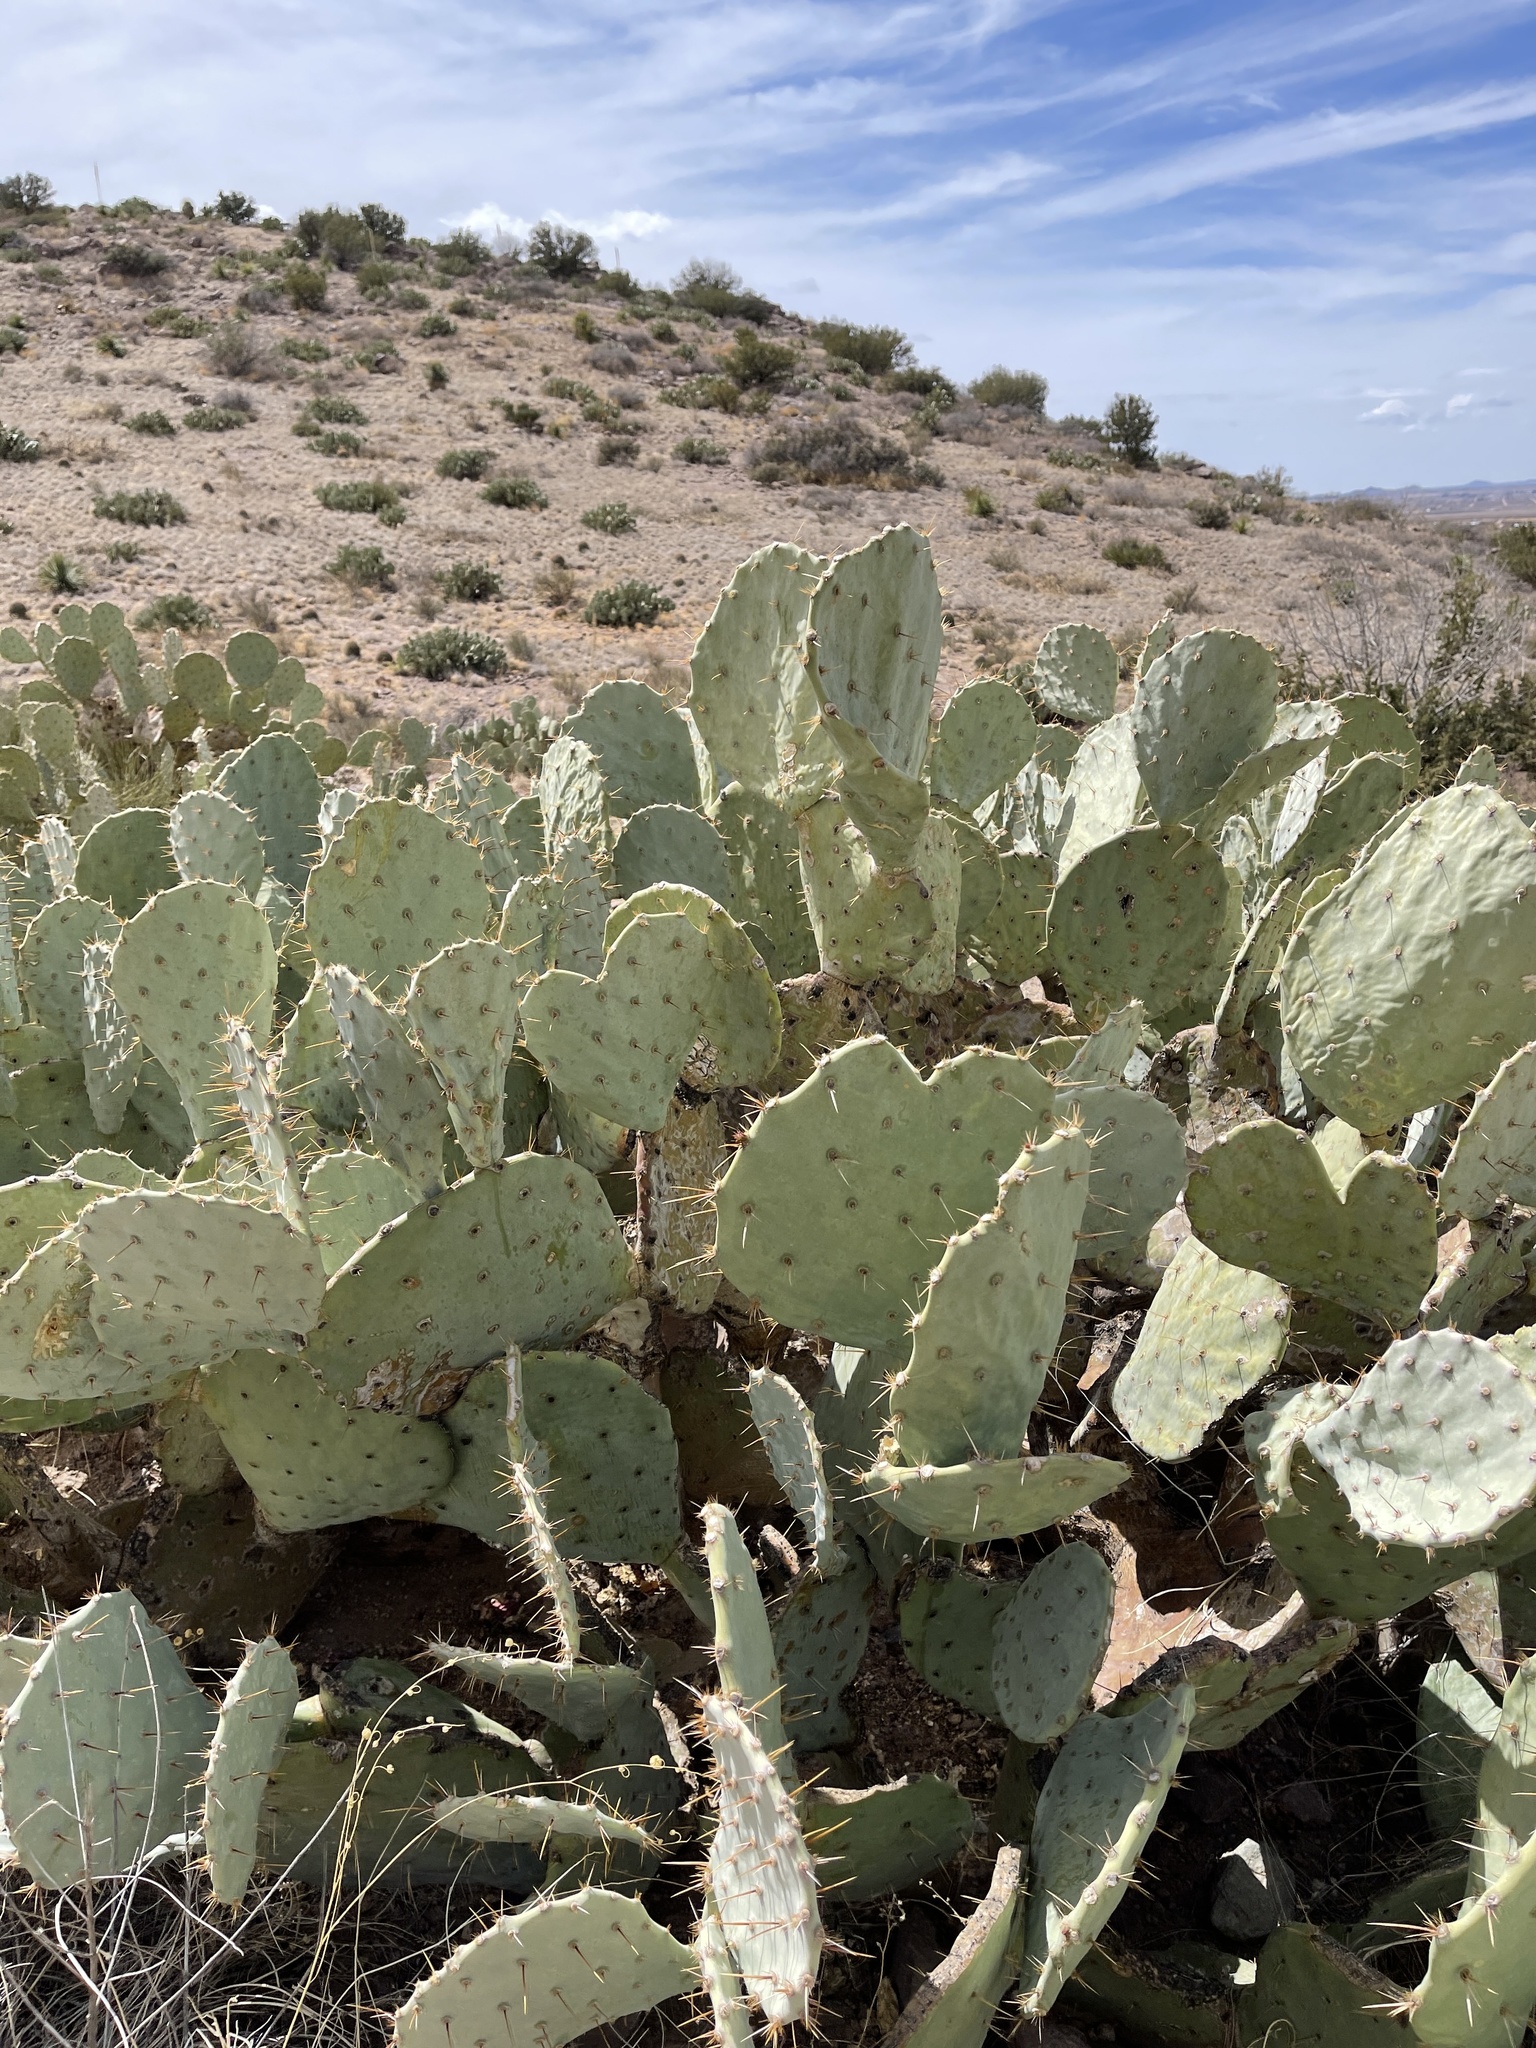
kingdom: Plantae
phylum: Tracheophyta
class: Magnoliopsida
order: Caryophyllales
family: Cactaceae
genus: Opuntia
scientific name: Opuntia engelmannii
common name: Cactus-apple
